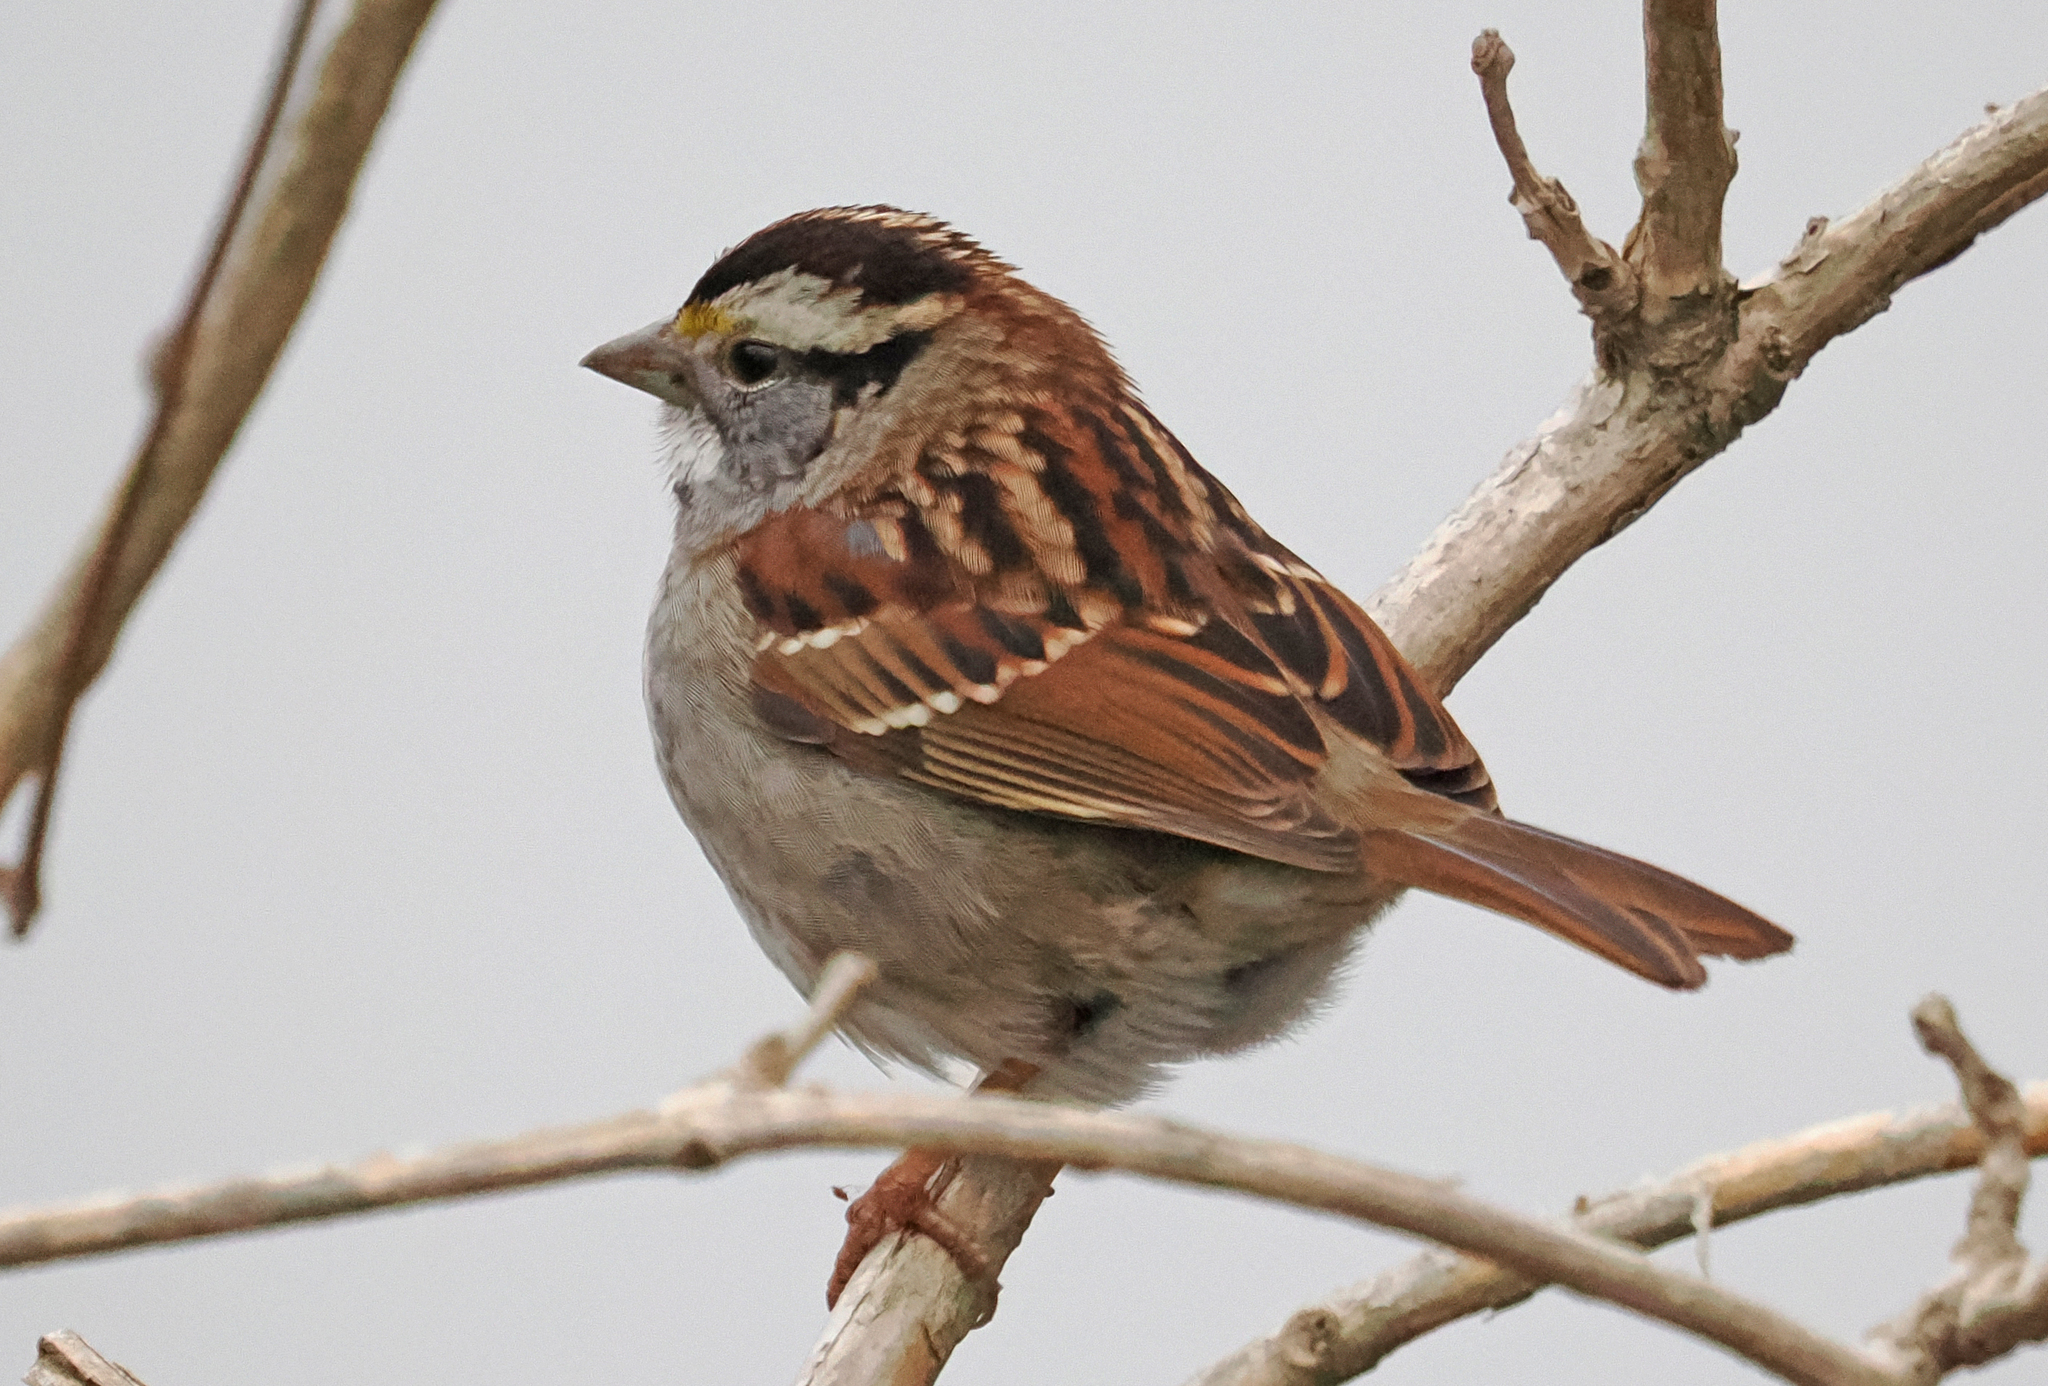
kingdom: Animalia
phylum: Chordata
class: Aves
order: Passeriformes
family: Passerellidae
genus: Zonotrichia
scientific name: Zonotrichia albicollis
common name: White-throated sparrow
